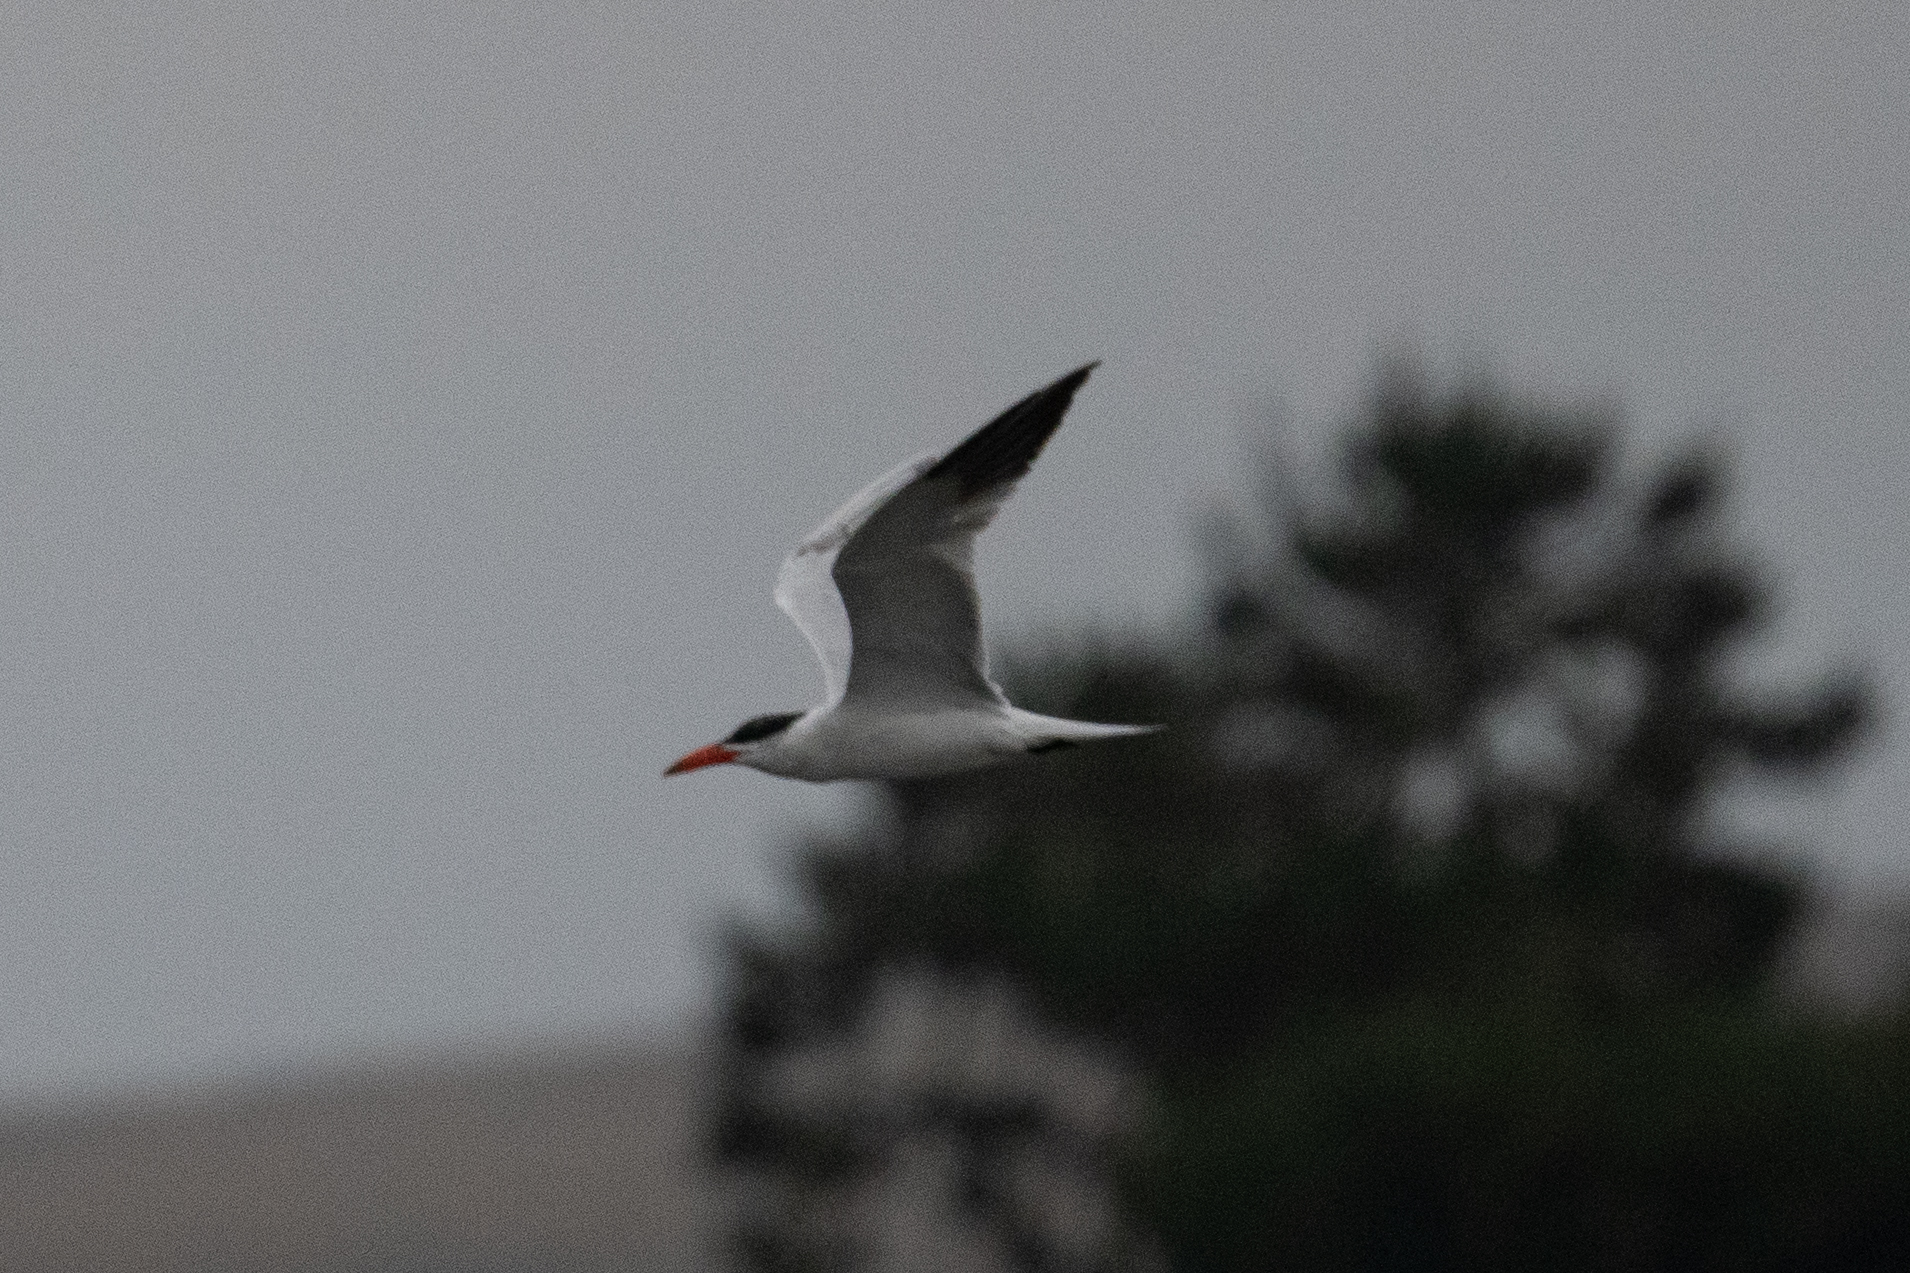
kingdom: Animalia
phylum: Chordata
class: Aves
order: Charadriiformes
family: Laridae
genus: Hydroprogne
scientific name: Hydroprogne caspia
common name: Caspian tern
